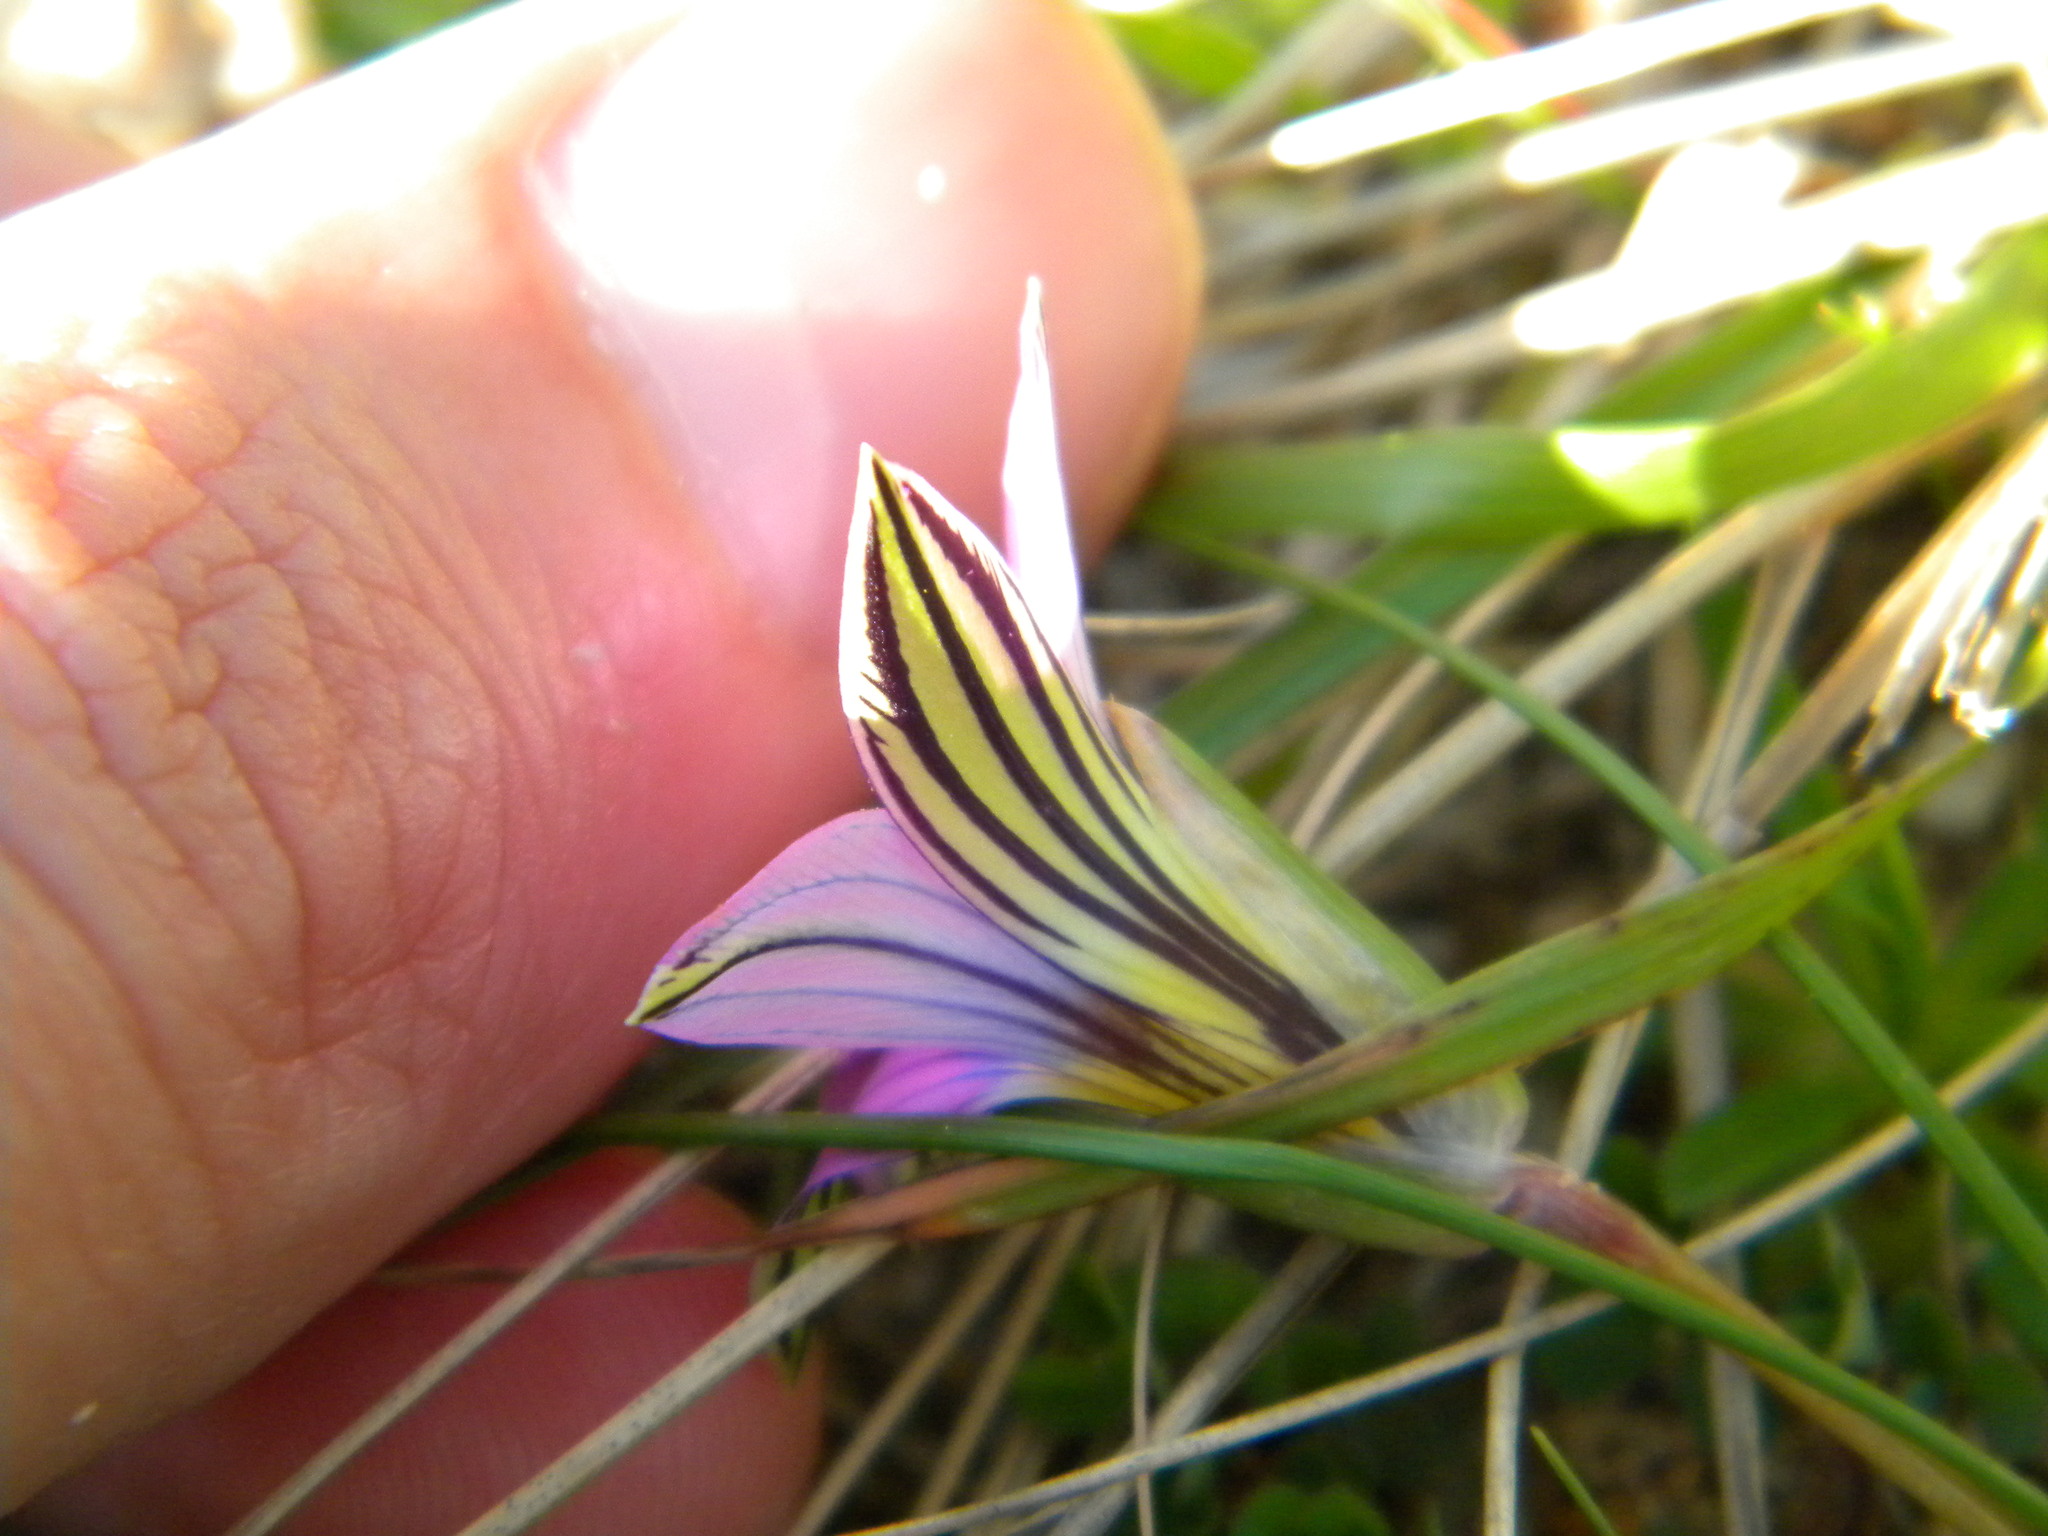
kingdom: Plantae
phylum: Tracheophyta
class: Liliopsida
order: Asparagales
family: Iridaceae
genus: Romulea
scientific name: Romulea rosea
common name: Oniongrass
